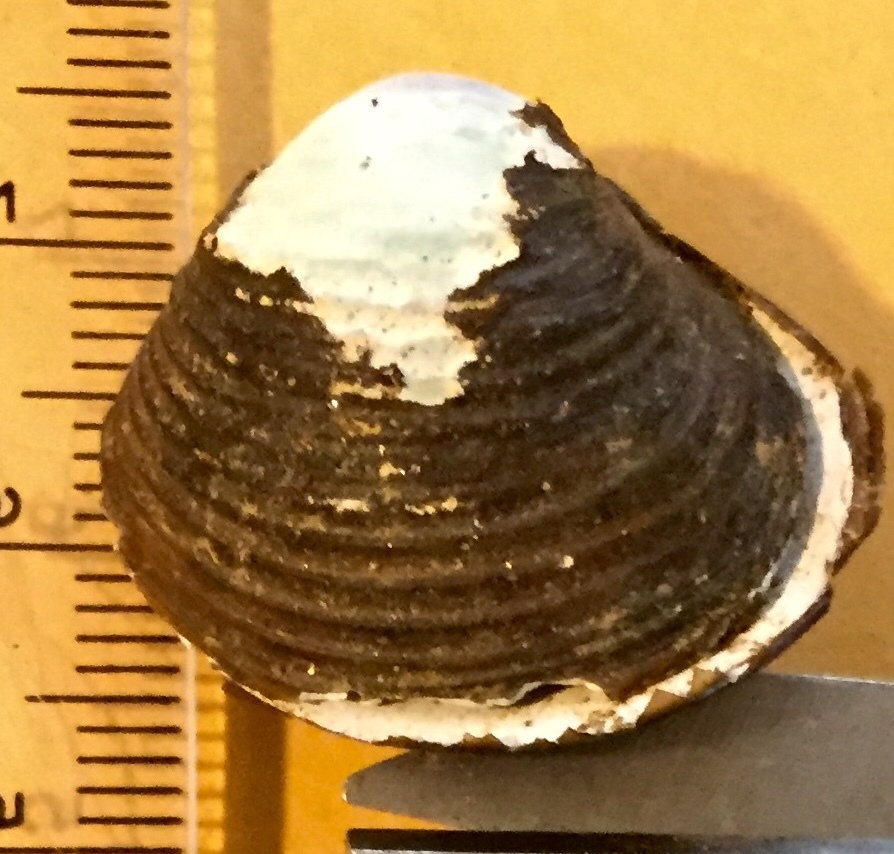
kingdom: Animalia
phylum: Mollusca
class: Bivalvia
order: Venerida
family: Cyrenidae
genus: Corbicula
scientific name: Corbicula fluminea
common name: Asian clam
